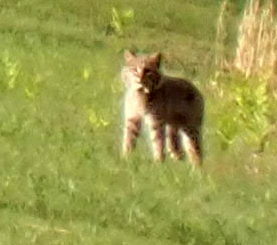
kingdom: Animalia
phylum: Chordata
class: Mammalia
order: Carnivora
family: Felidae
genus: Lynx
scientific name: Lynx rufus
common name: Bobcat
